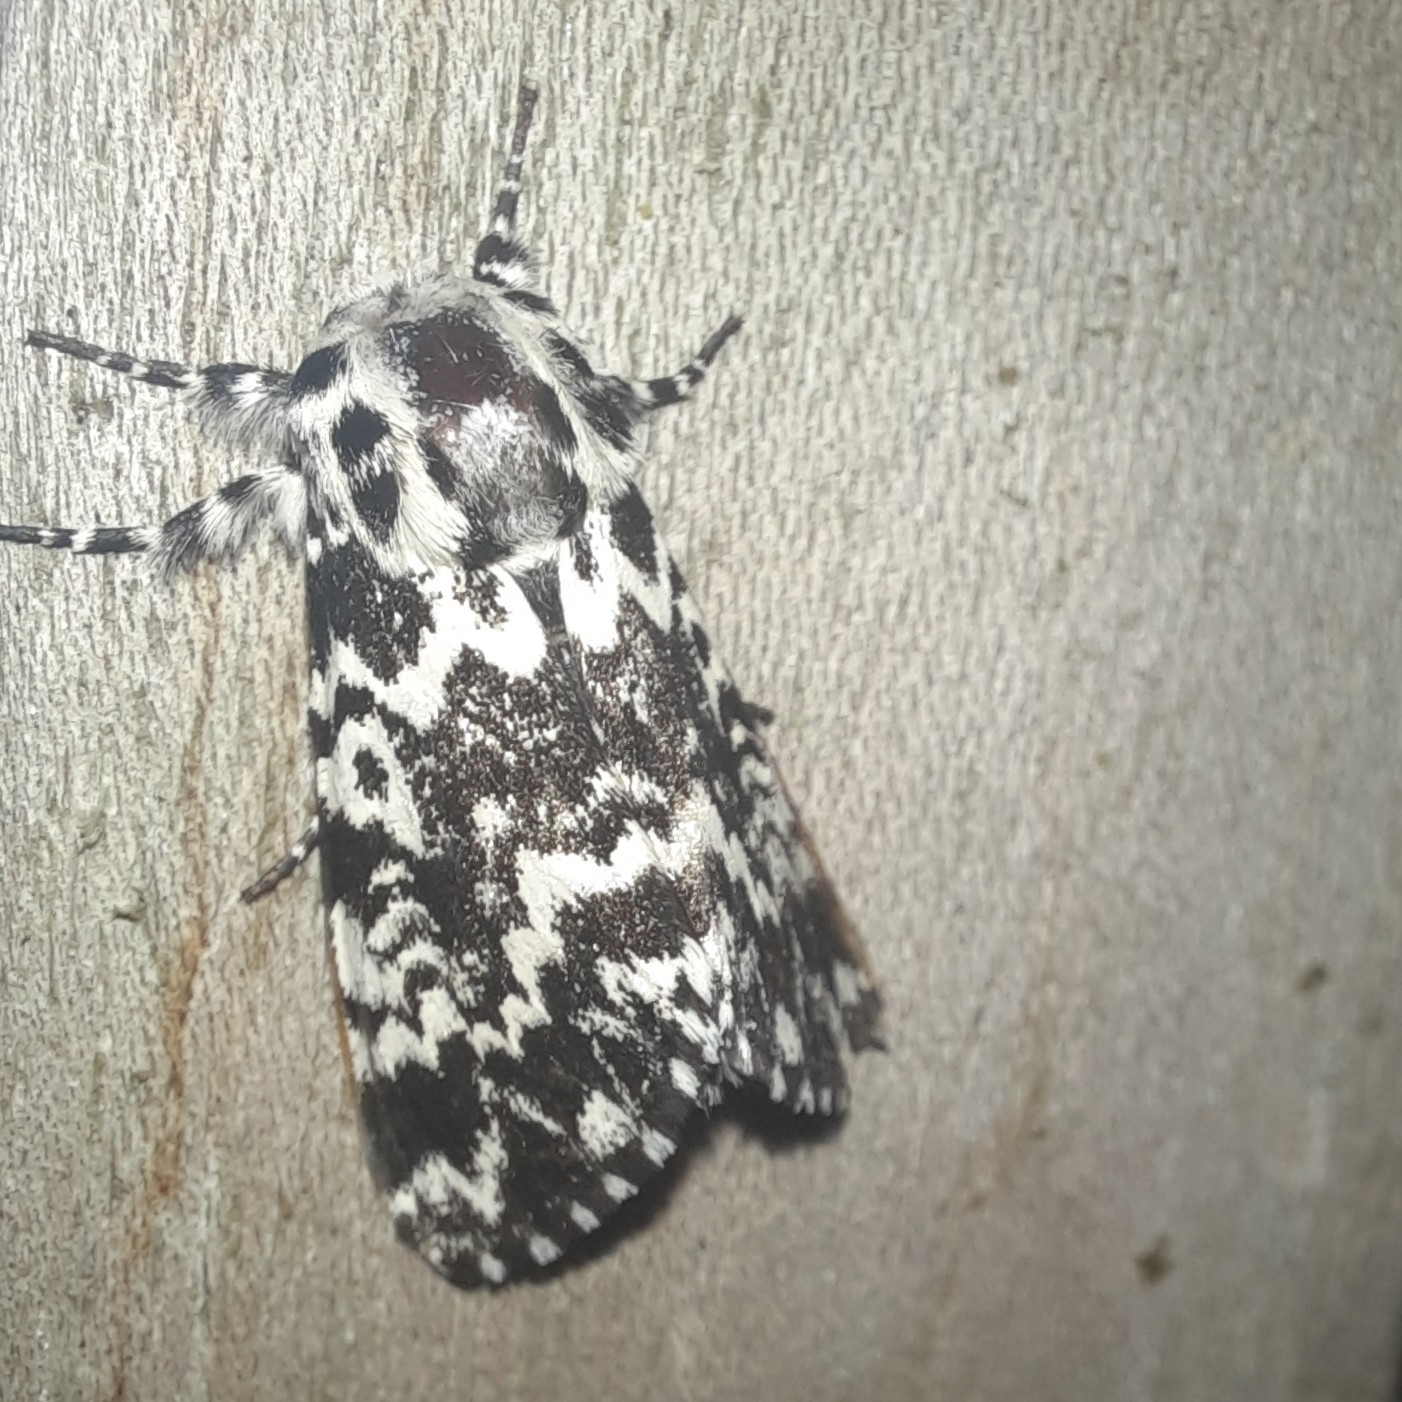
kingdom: Animalia
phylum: Arthropoda
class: Insecta
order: Lepidoptera
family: Noctuidae
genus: Panthea
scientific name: Panthea coenobita
